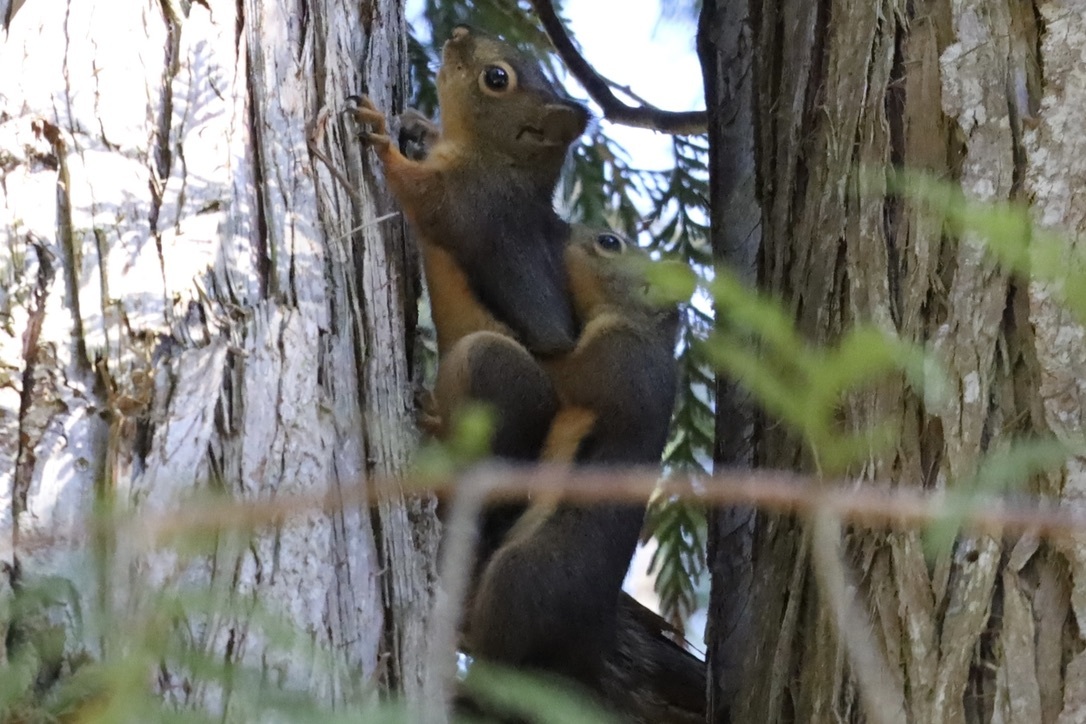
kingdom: Animalia
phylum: Chordata
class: Mammalia
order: Rodentia
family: Sciuridae
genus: Tamiasciurus
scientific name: Tamiasciurus douglasii
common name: Douglas's squirrel
